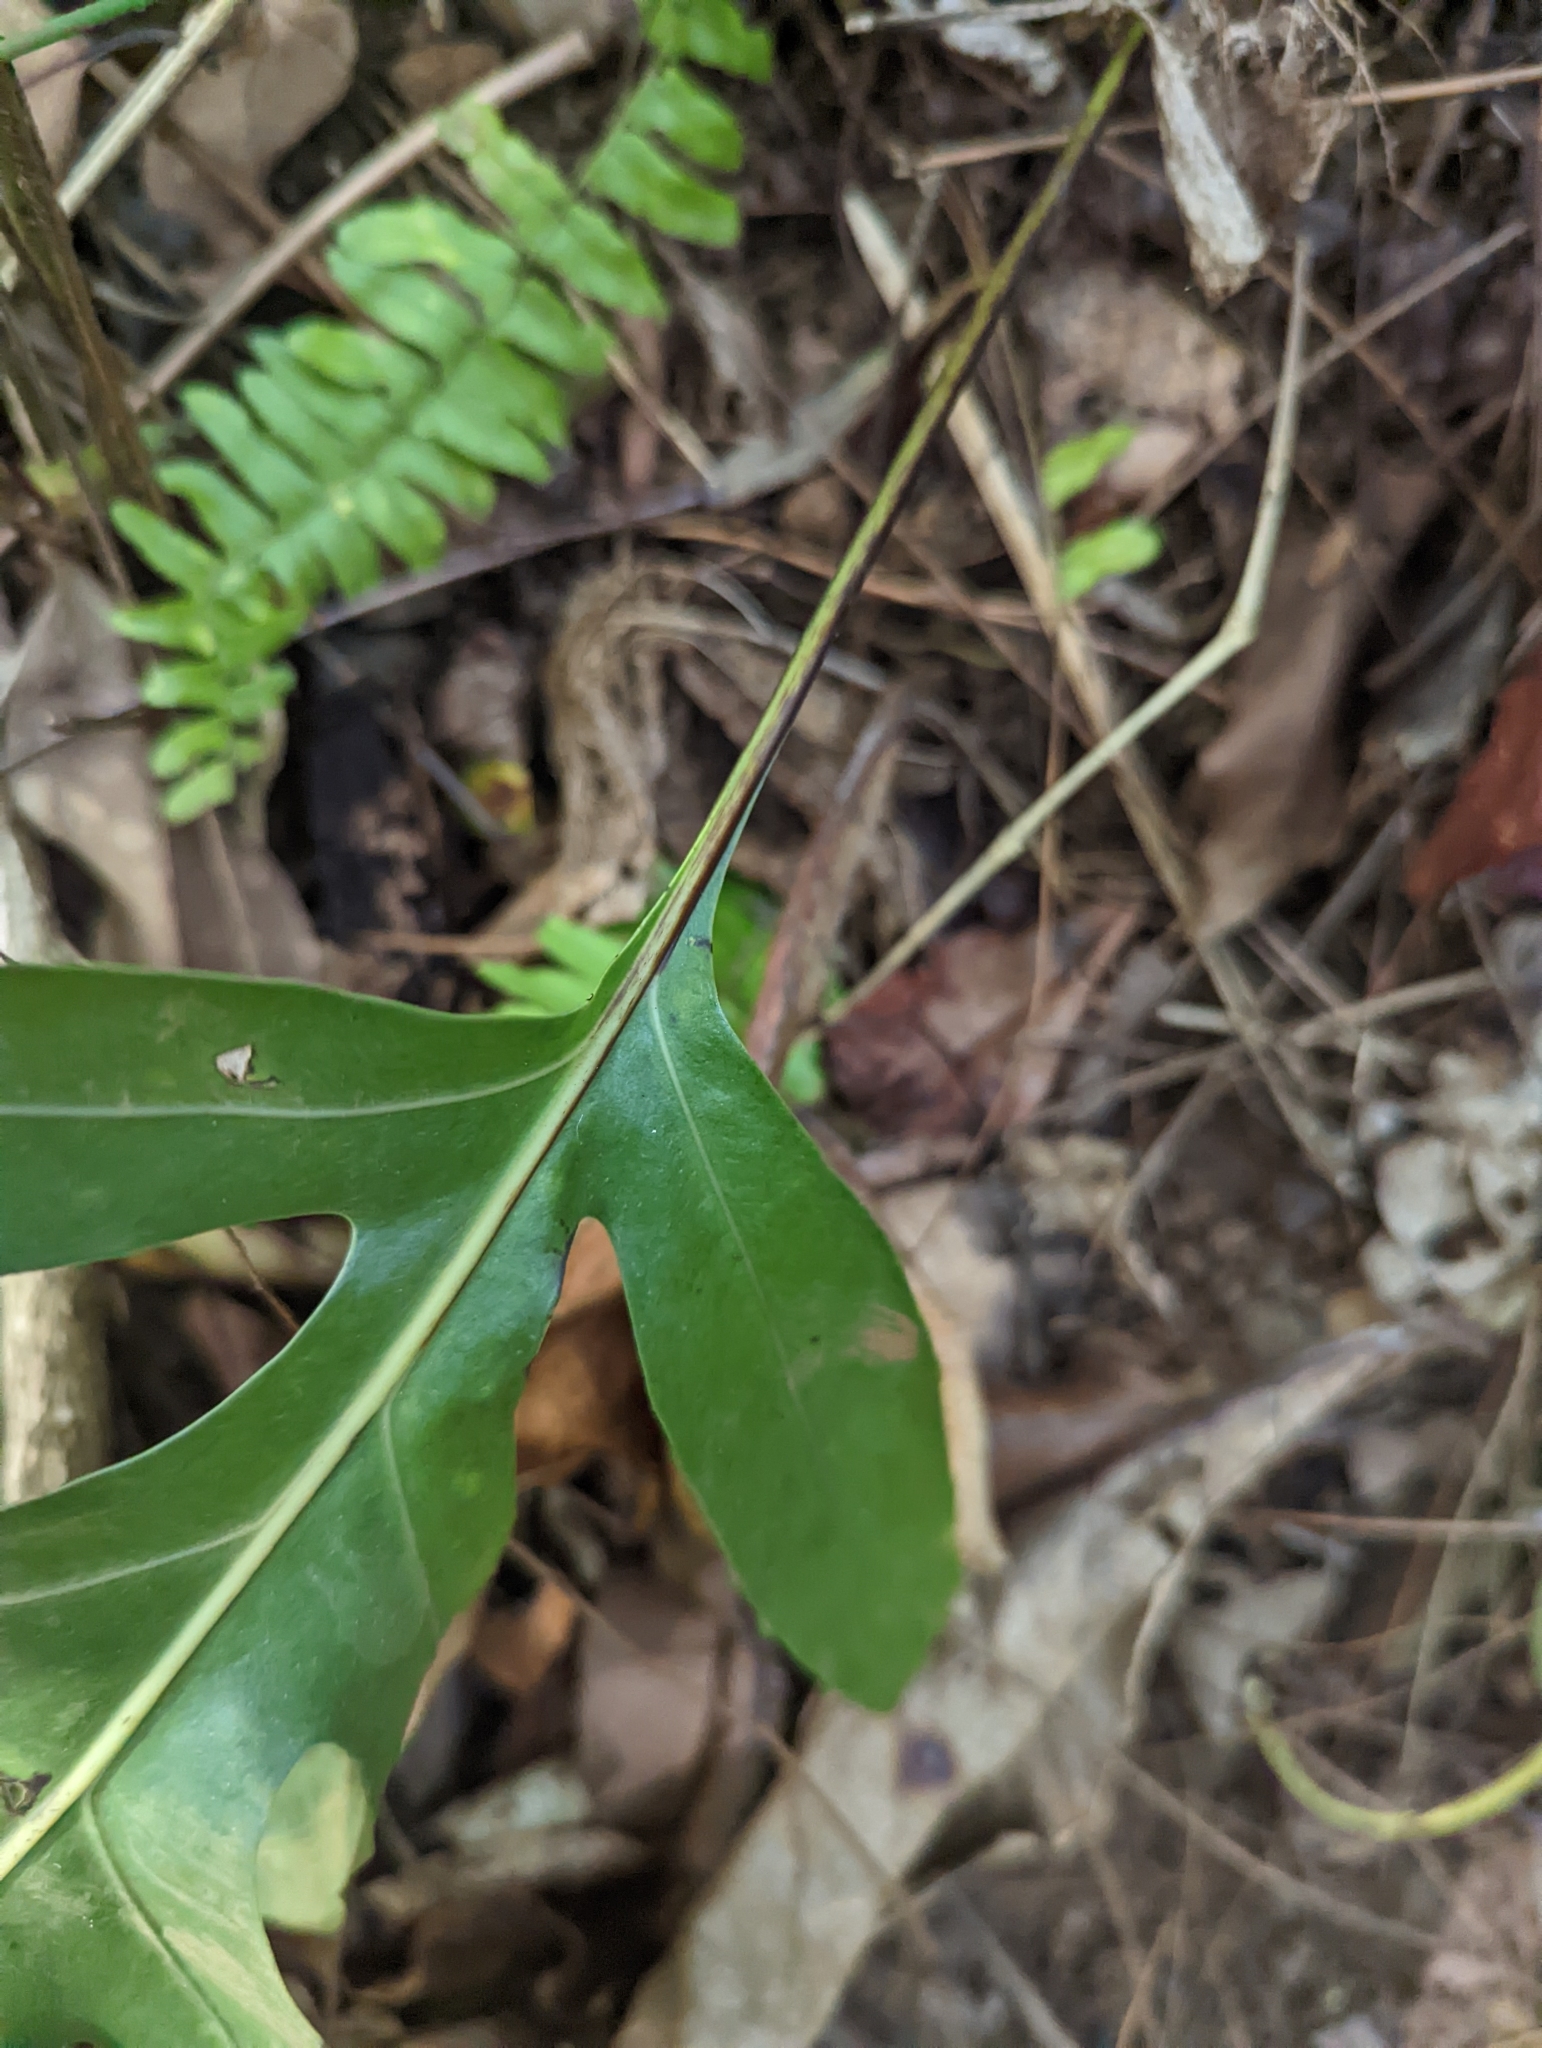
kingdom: Plantae
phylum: Tracheophyta
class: Polypodiopsida
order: Polypodiales
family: Polypodiaceae
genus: Microsorum
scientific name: Microsorum grossum
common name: Musk fern
